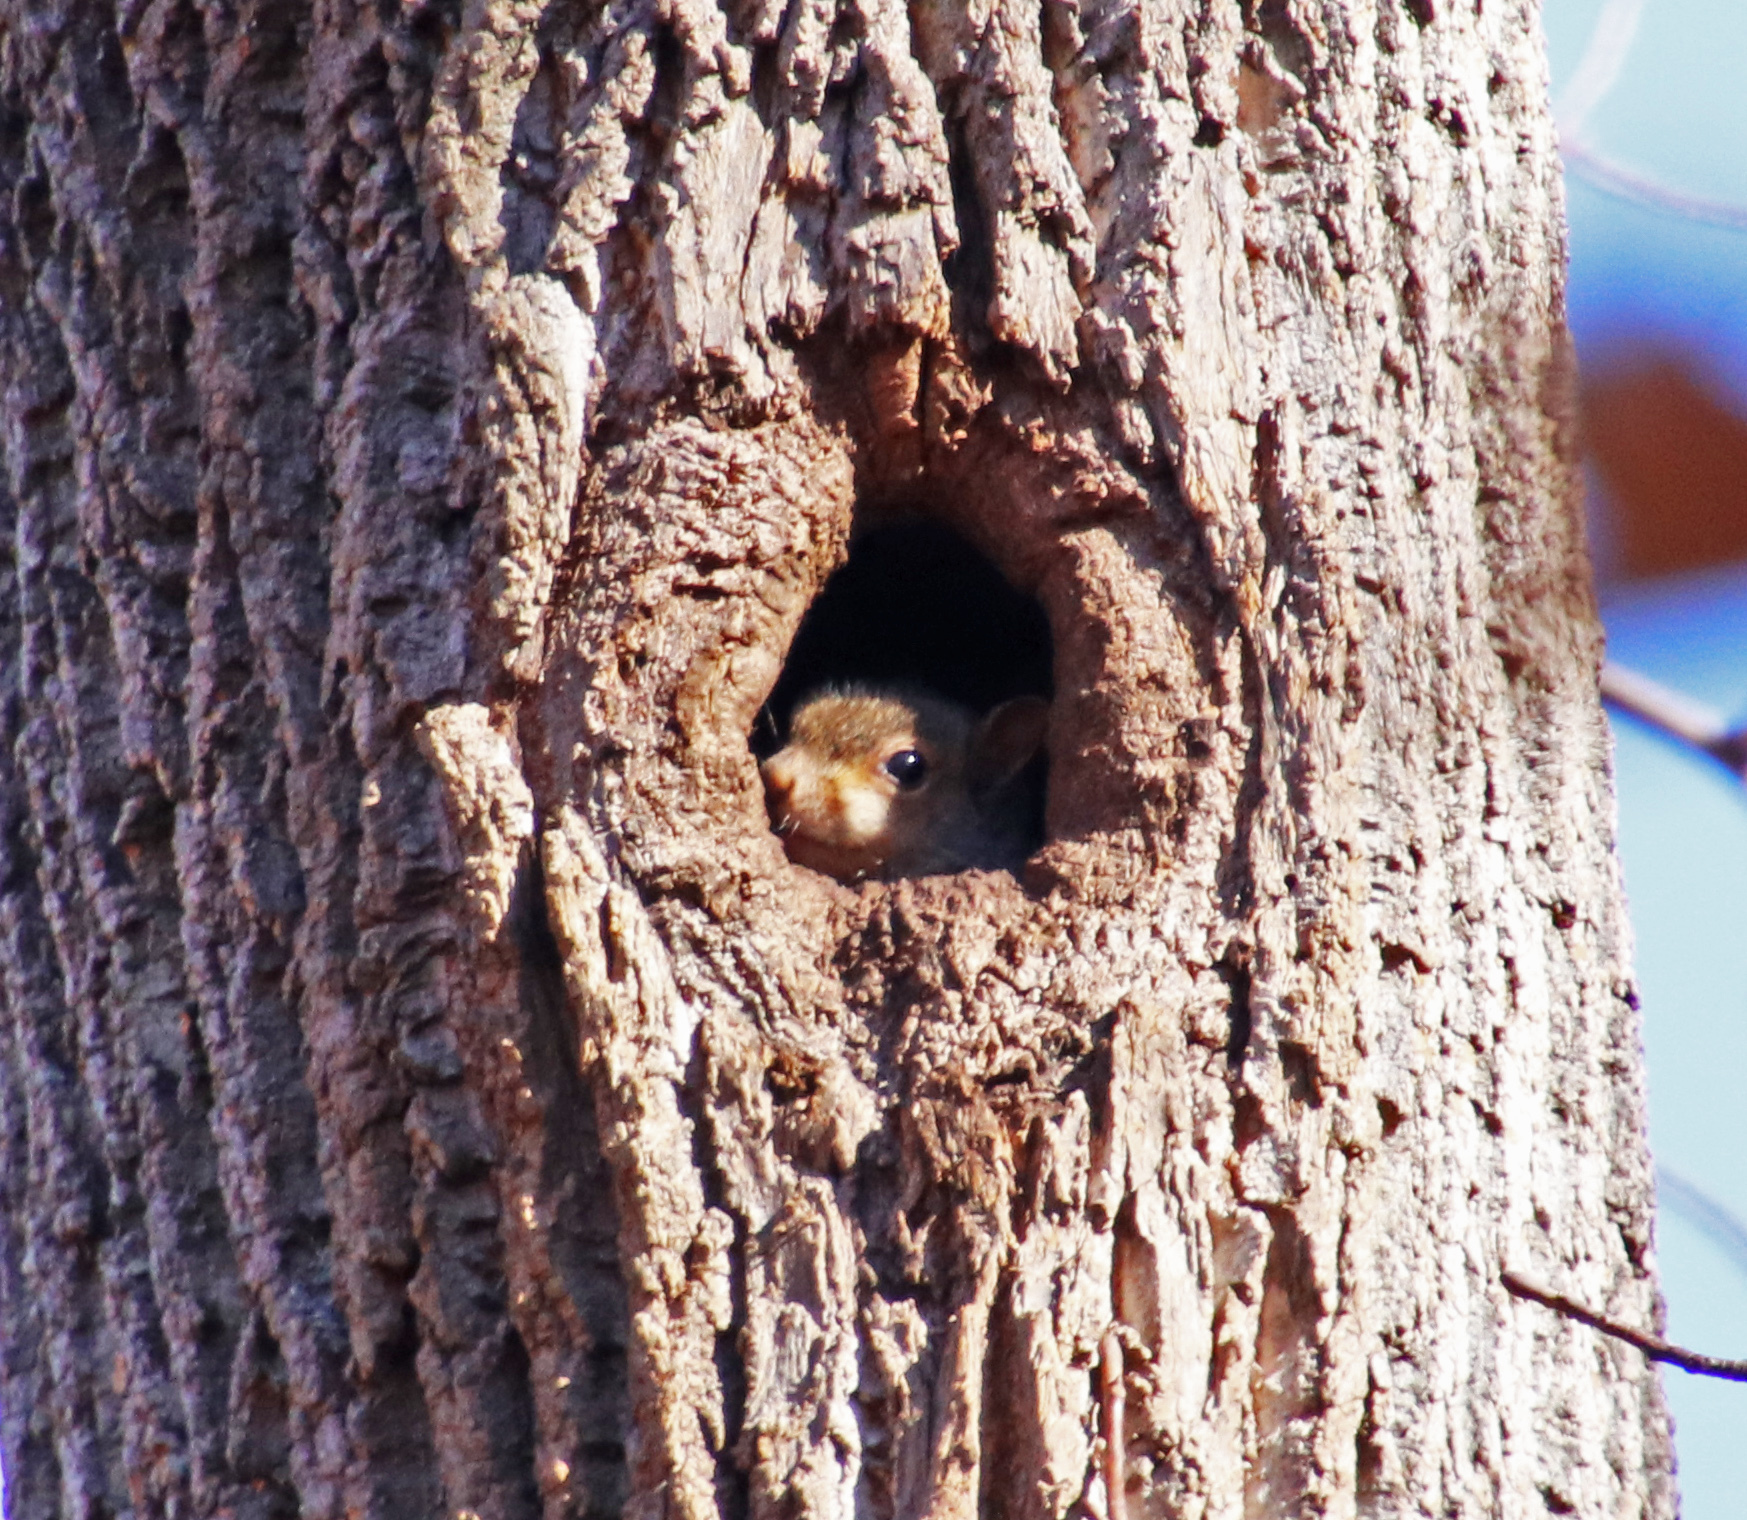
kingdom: Animalia
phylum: Chordata
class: Mammalia
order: Rodentia
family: Sciuridae
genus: Sciurus
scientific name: Sciurus carolinensis
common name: Eastern gray squirrel
